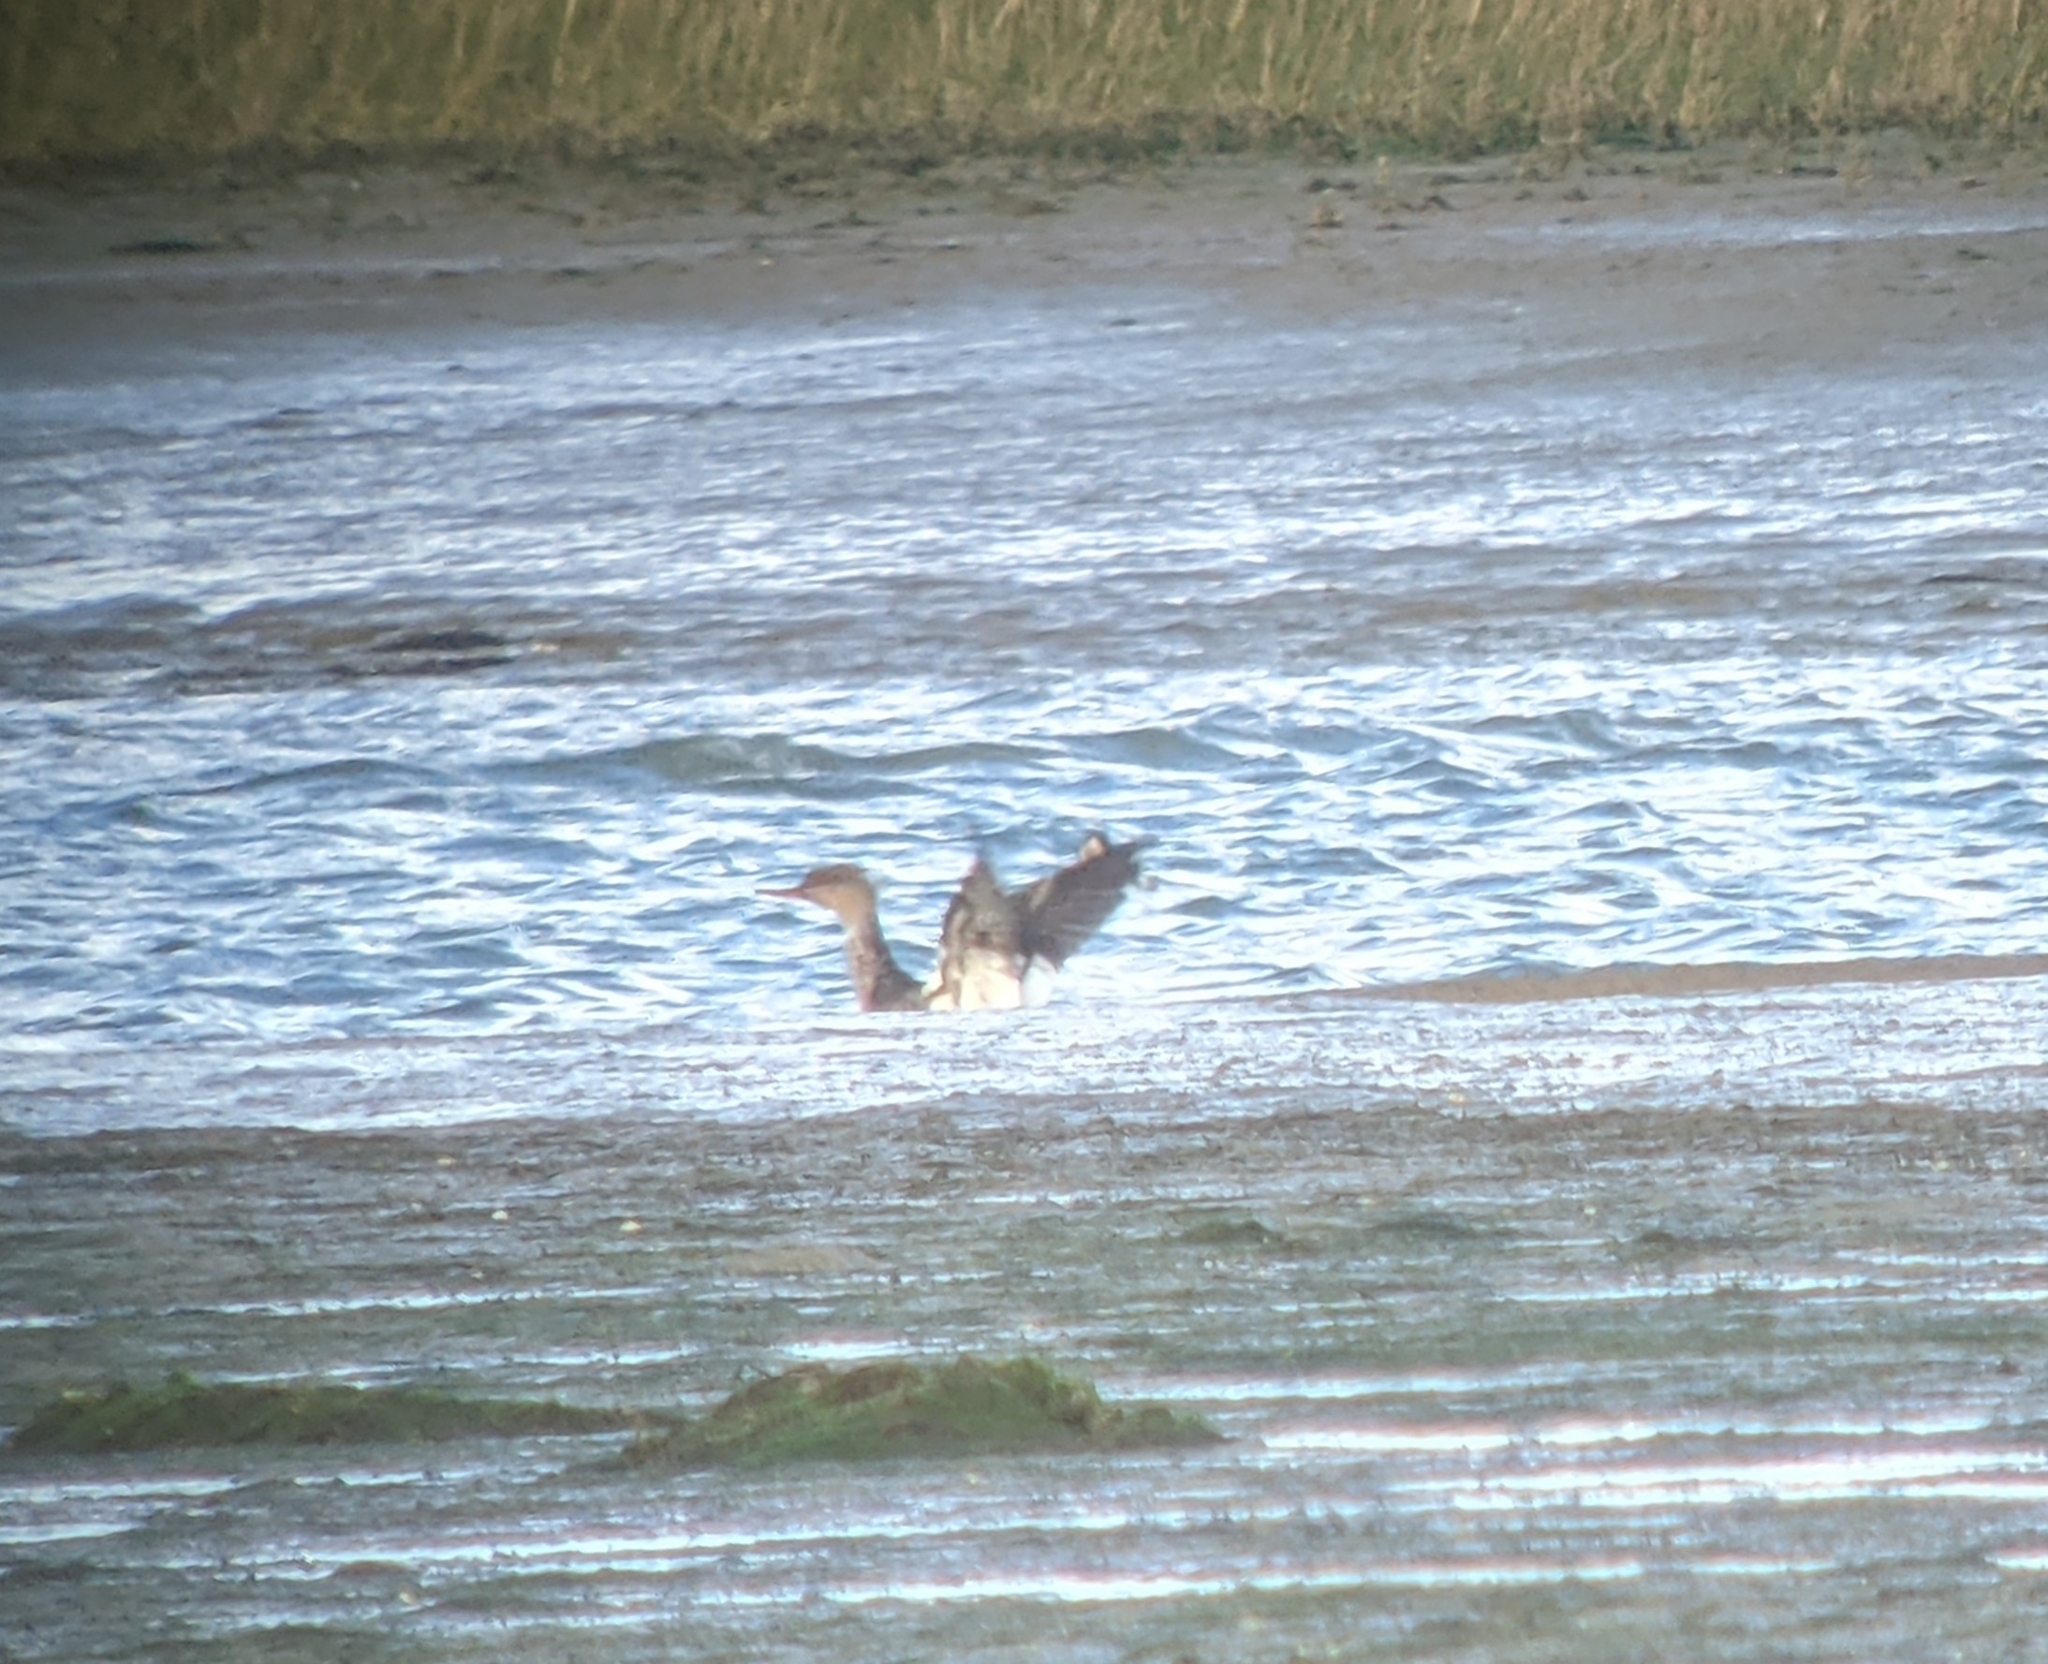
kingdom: Animalia
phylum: Chordata
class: Aves
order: Anseriformes
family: Anatidae
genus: Mergus
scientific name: Mergus serrator
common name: Red-breasted merganser
